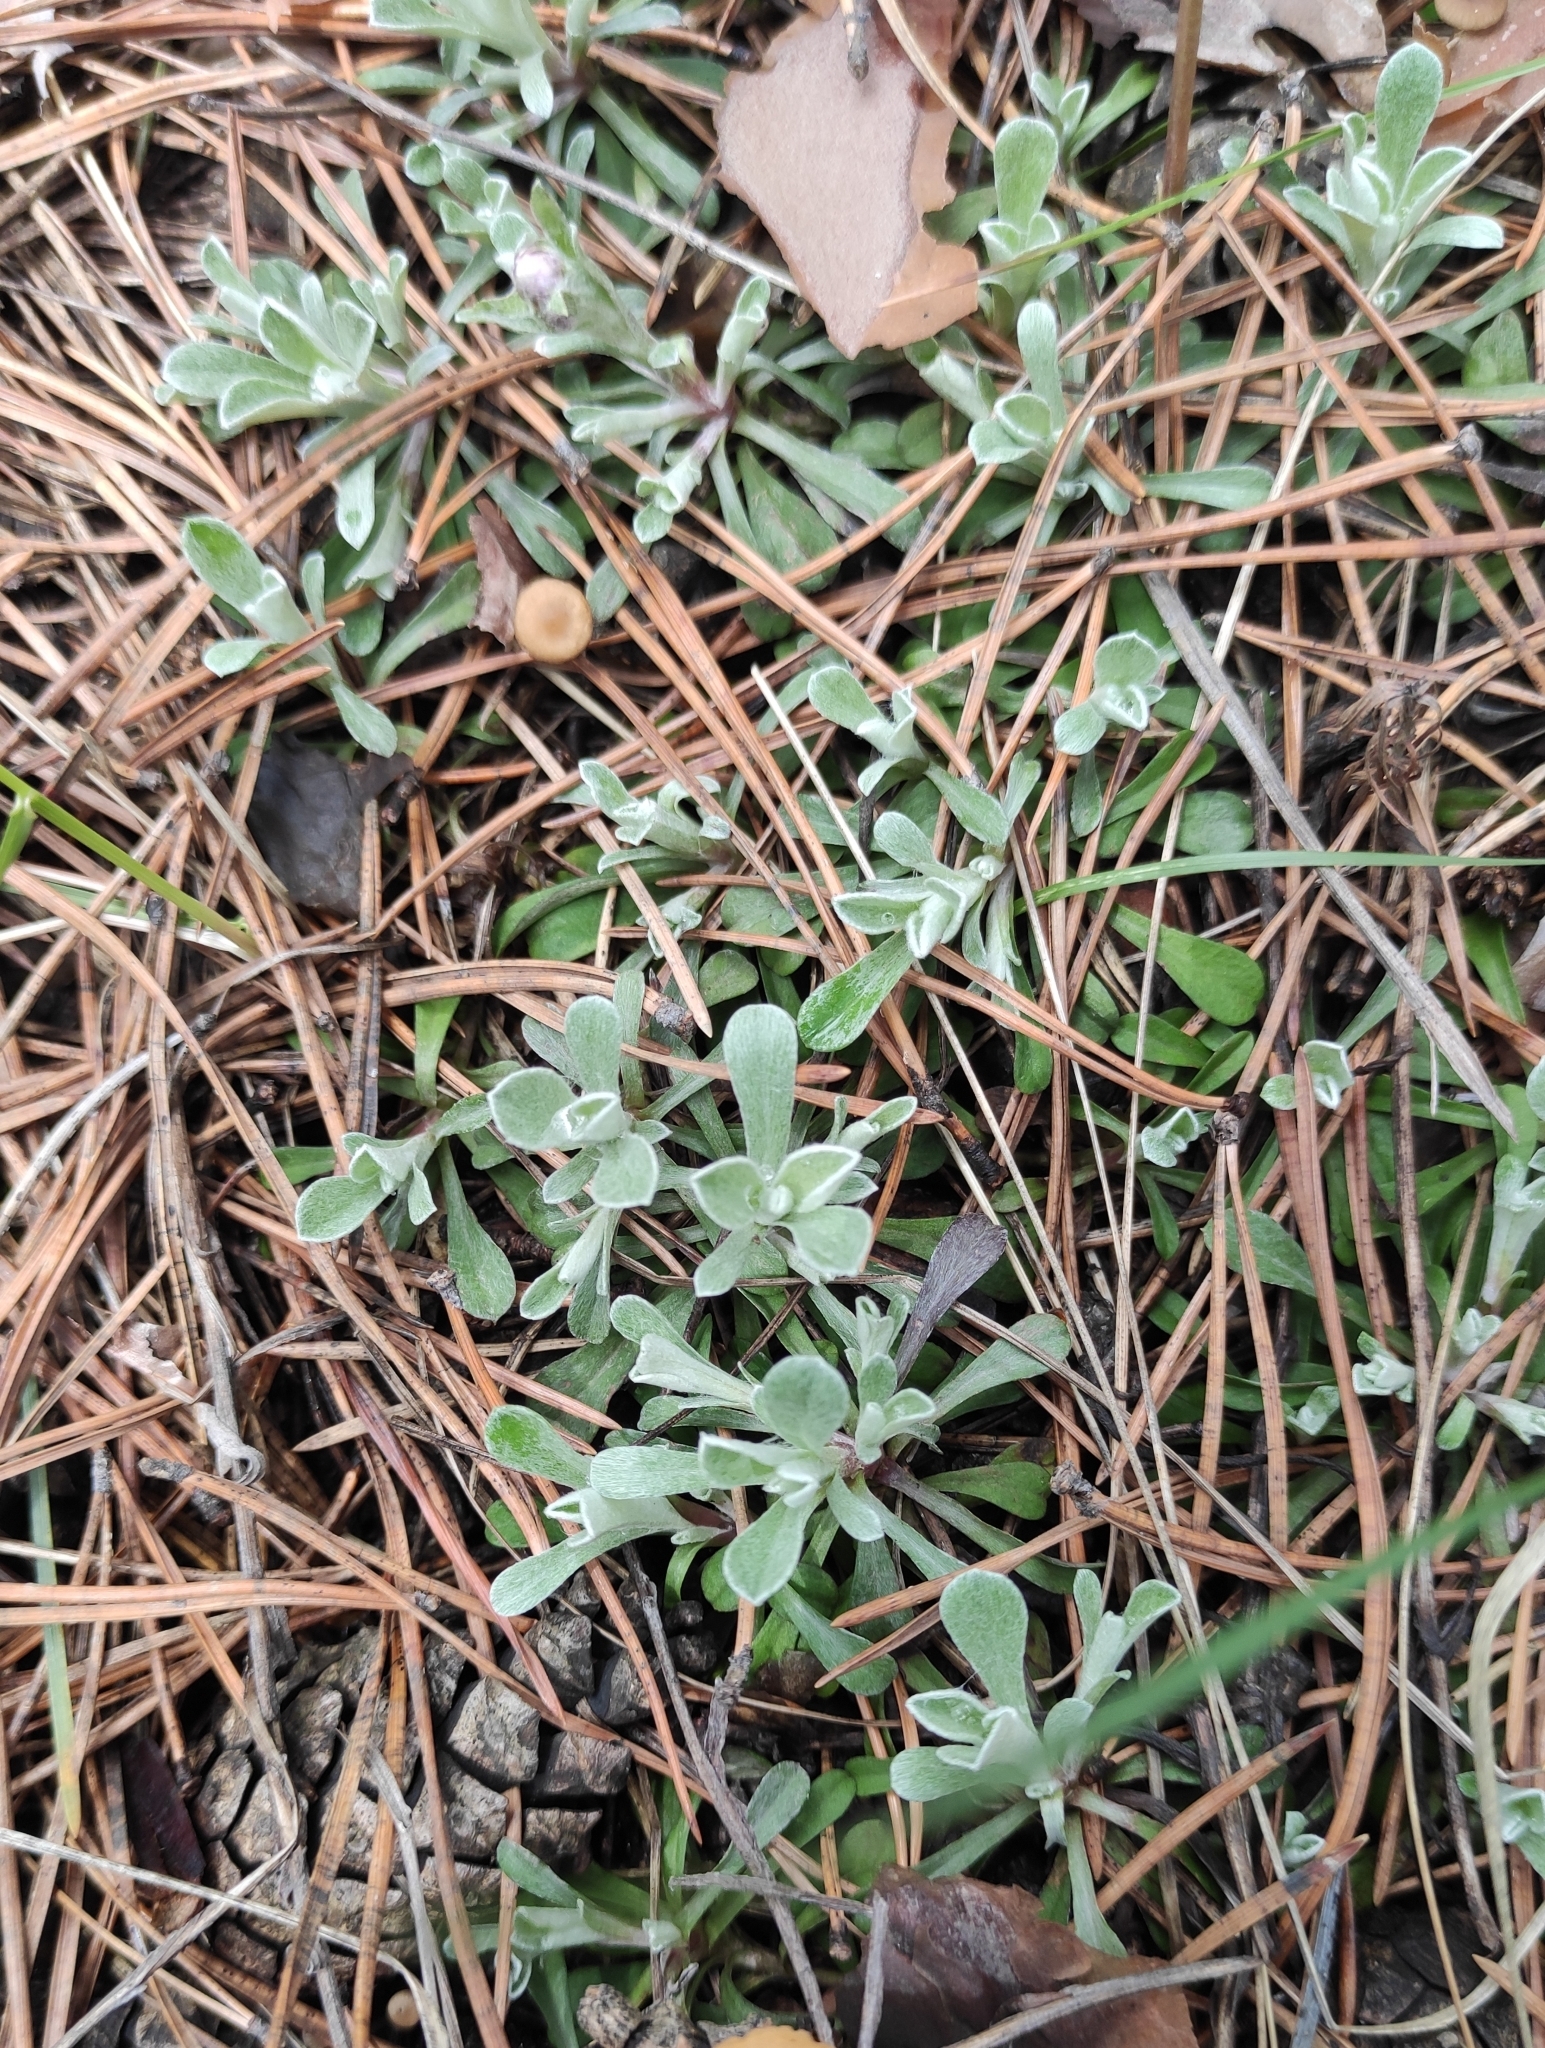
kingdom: Plantae
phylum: Tracheophyta
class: Magnoliopsida
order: Asterales
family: Asteraceae
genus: Antennaria
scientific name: Antennaria dioica
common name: Mountain everlasting
